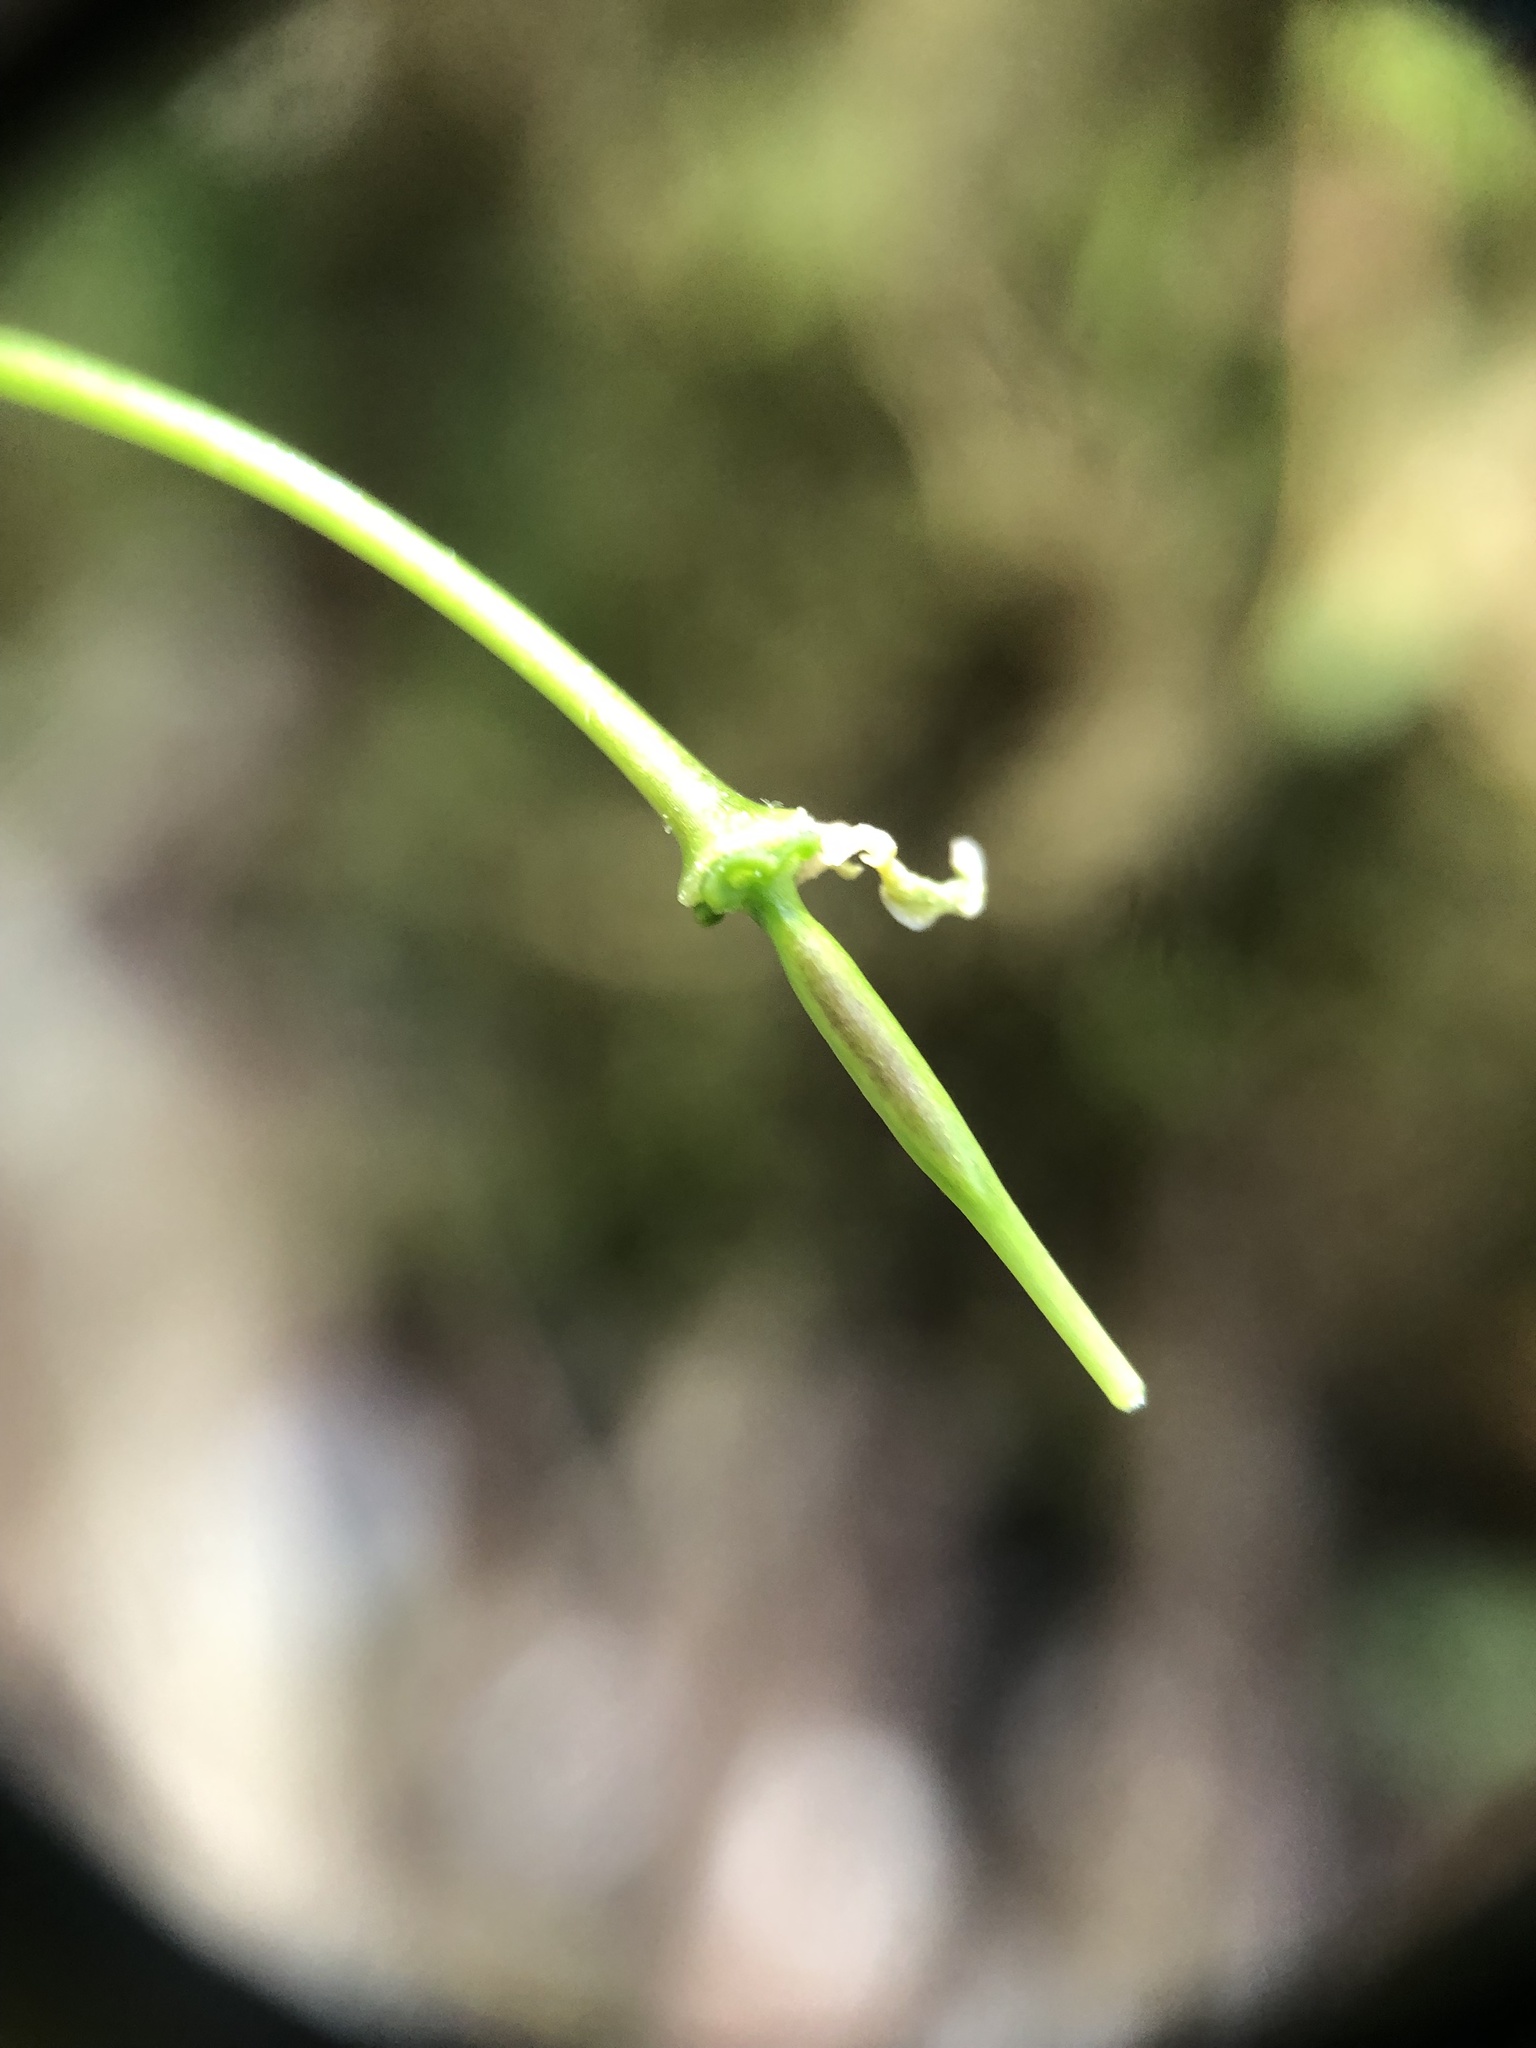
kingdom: Plantae
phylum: Tracheophyta
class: Magnoliopsida
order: Brassicales
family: Brassicaceae
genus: Cardamine
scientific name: Cardamine diphylla
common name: Broad-leaved toothwort
